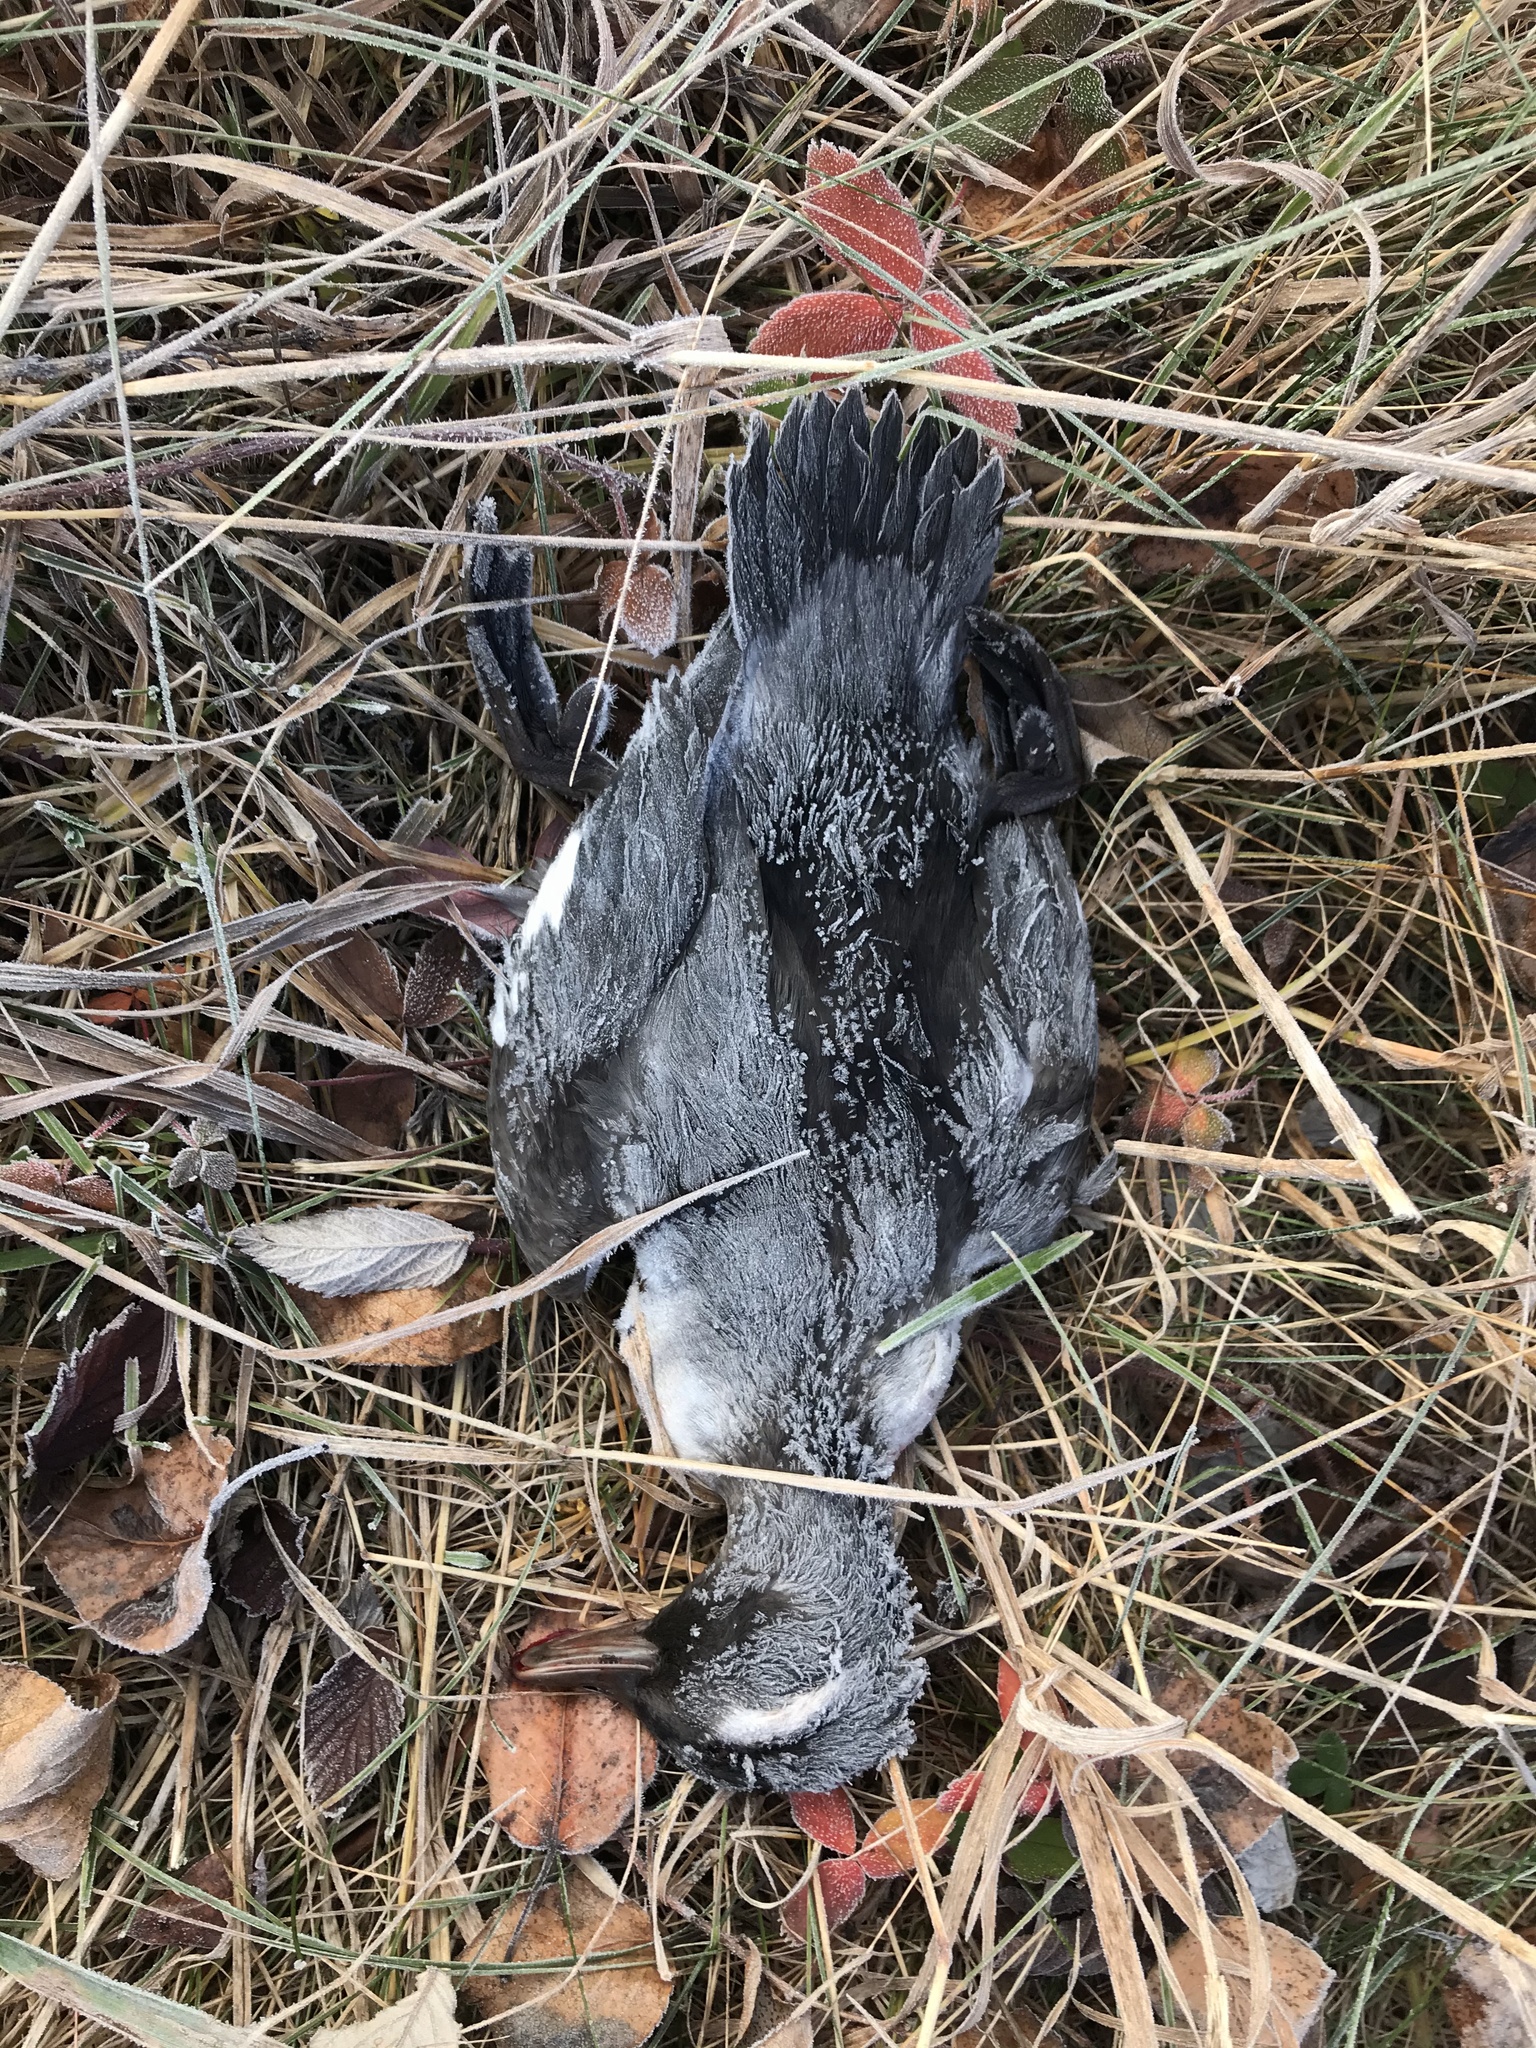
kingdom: Animalia
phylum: Chordata
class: Aves
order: Anseriformes
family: Anatidae
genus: Bucephala
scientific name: Bucephala albeola
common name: Bufflehead
